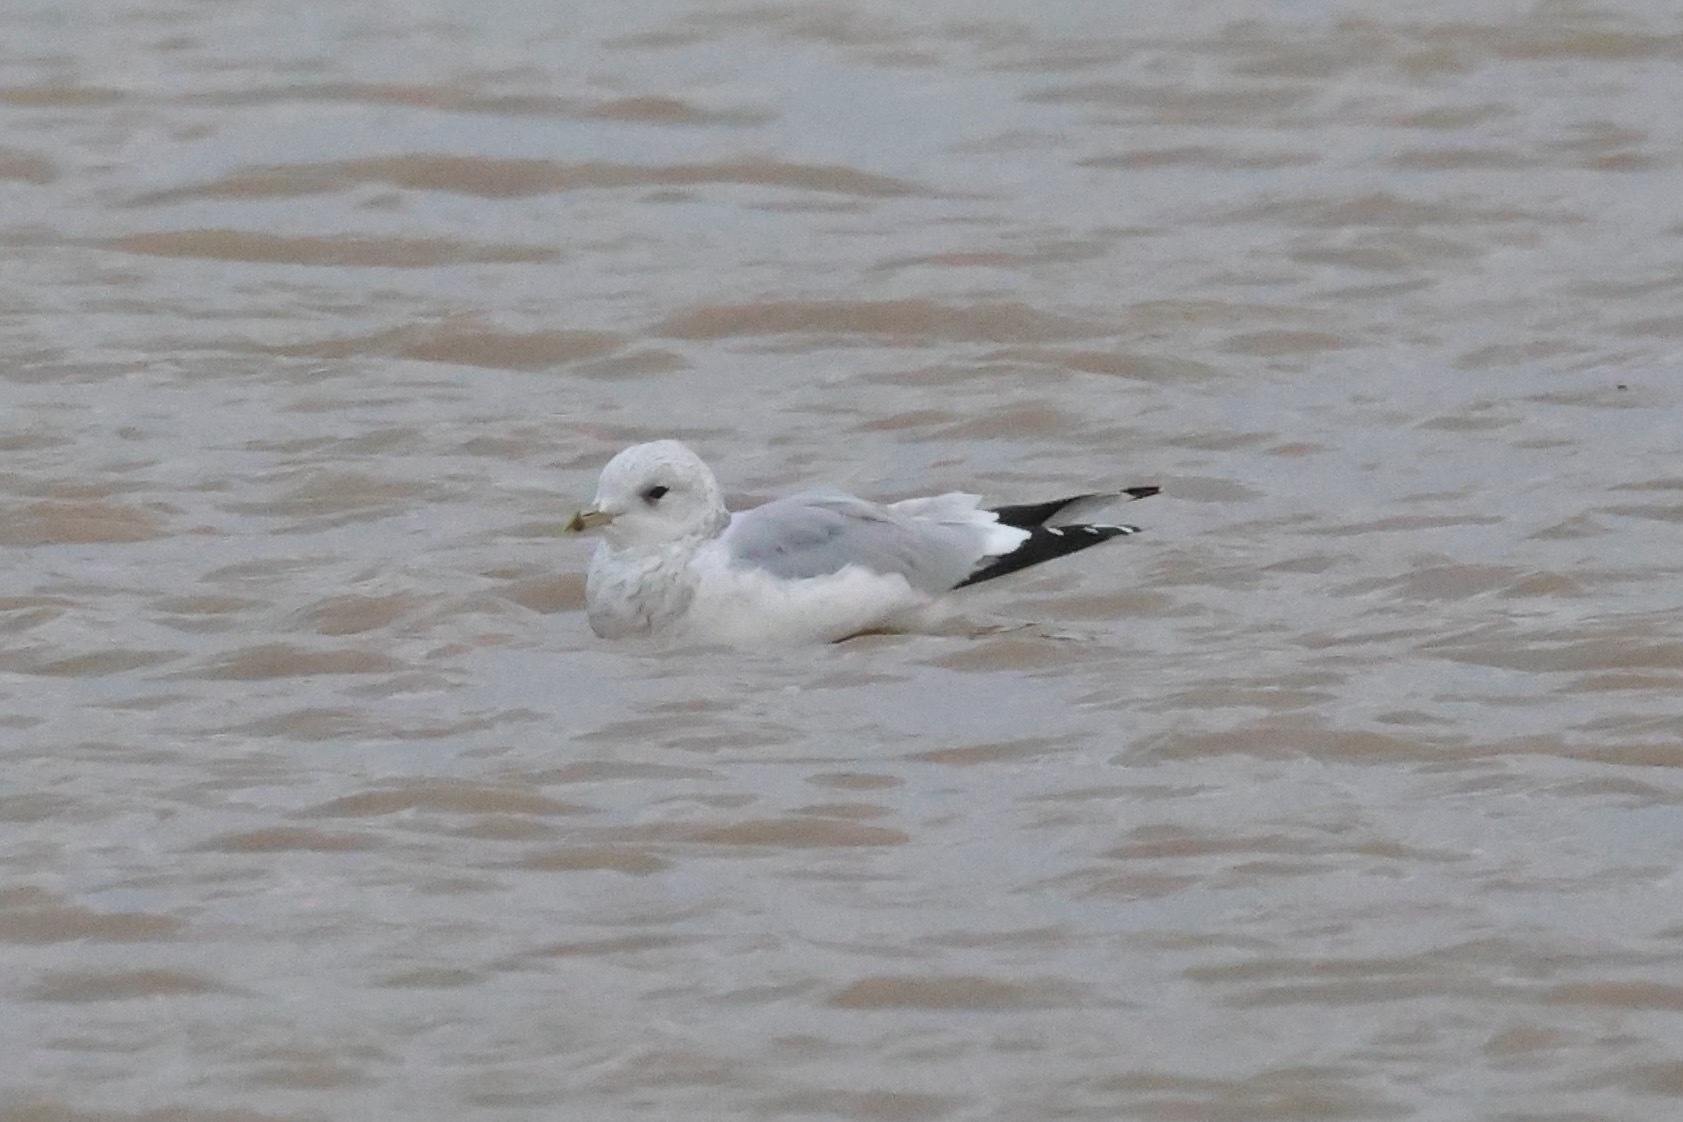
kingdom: Animalia
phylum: Chordata
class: Aves
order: Charadriiformes
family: Laridae
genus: Larus
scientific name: Larus canus
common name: Mew gull
